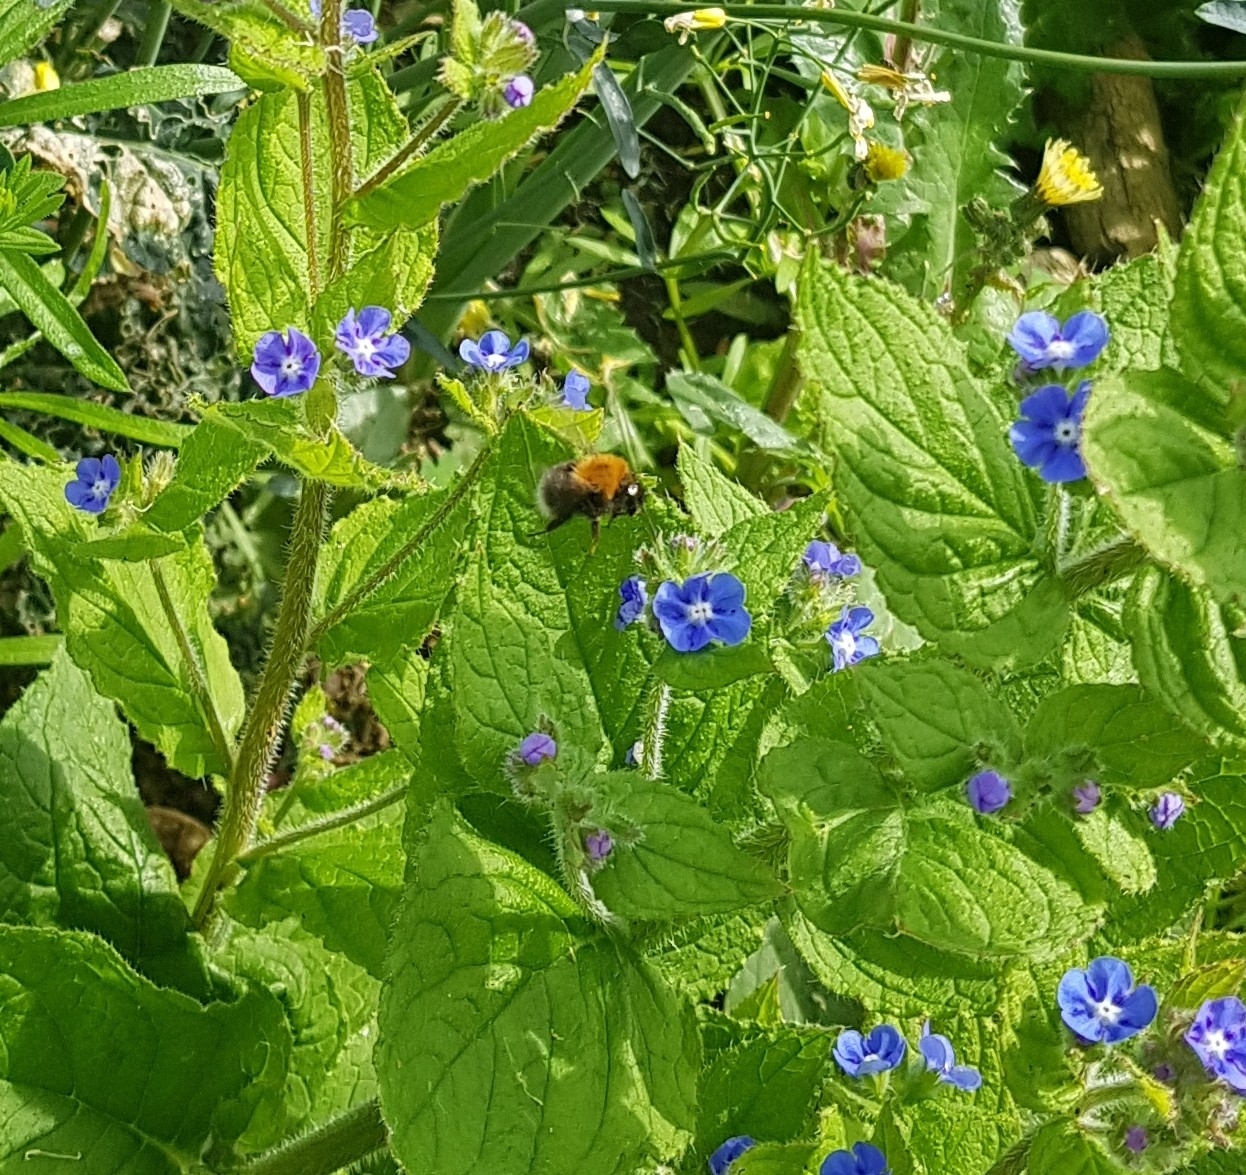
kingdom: Animalia
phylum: Arthropoda
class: Insecta
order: Hymenoptera
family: Apidae
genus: Bombus
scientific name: Bombus hypnorum
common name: New garden bumblebee
